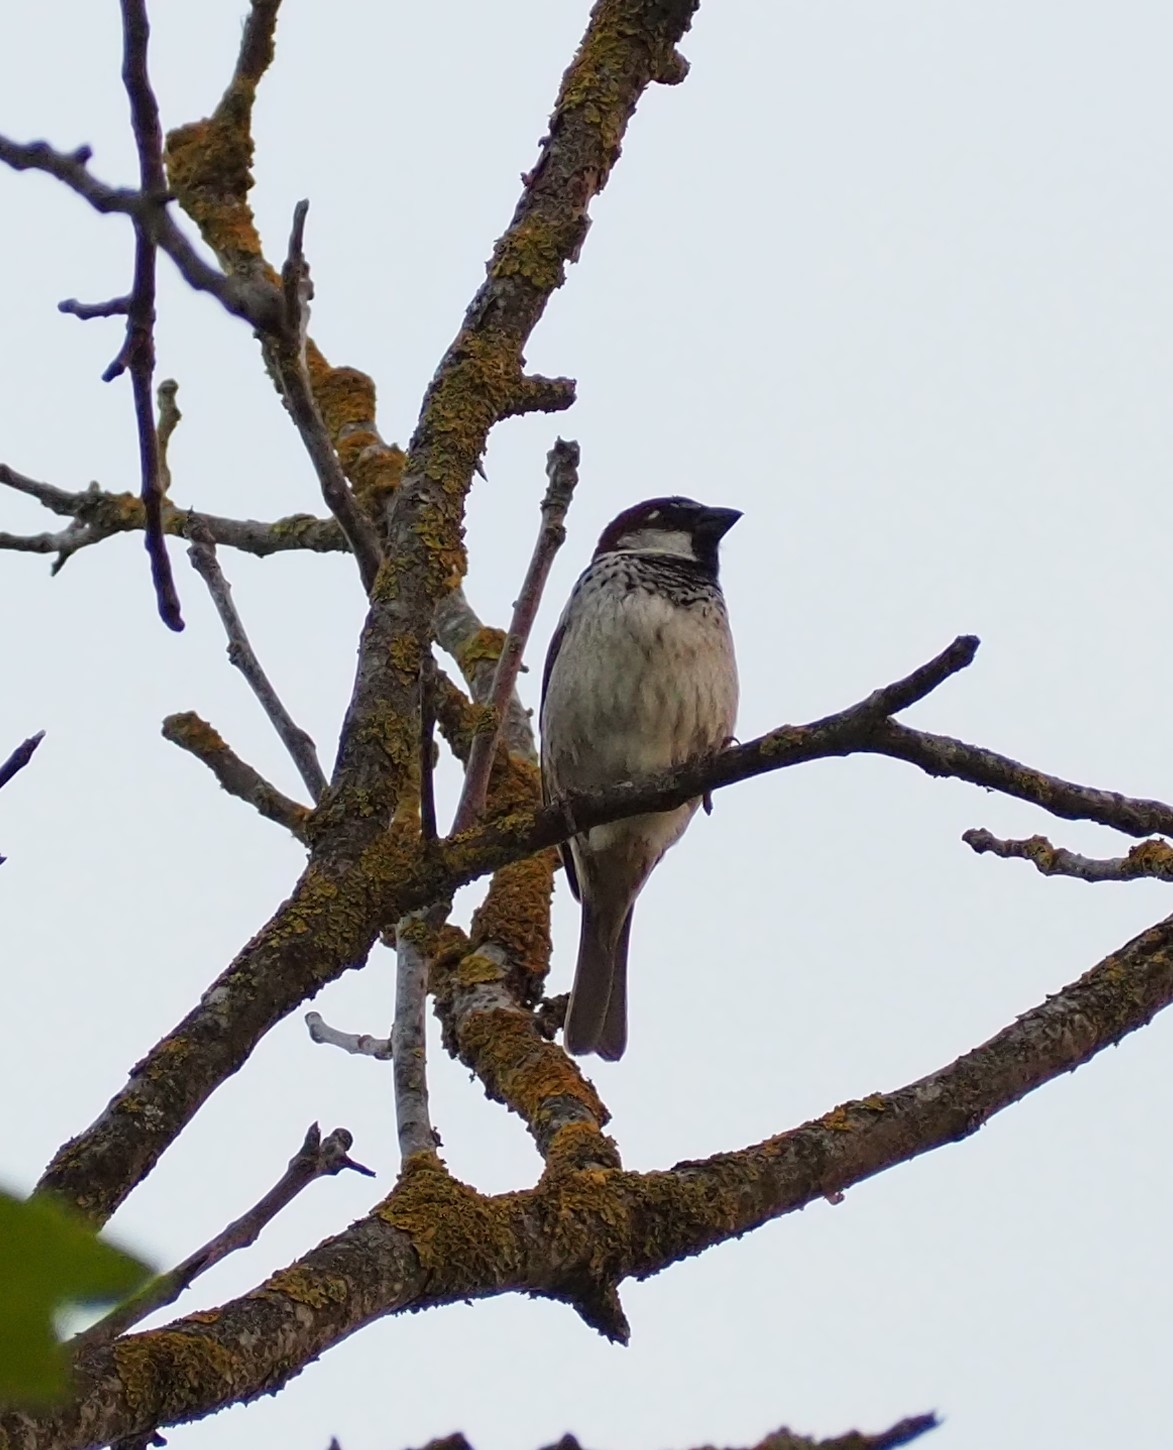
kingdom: Animalia
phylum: Chordata
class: Aves
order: Passeriformes
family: Passeridae
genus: Passer
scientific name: Passer italiae
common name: Italian sparrow
